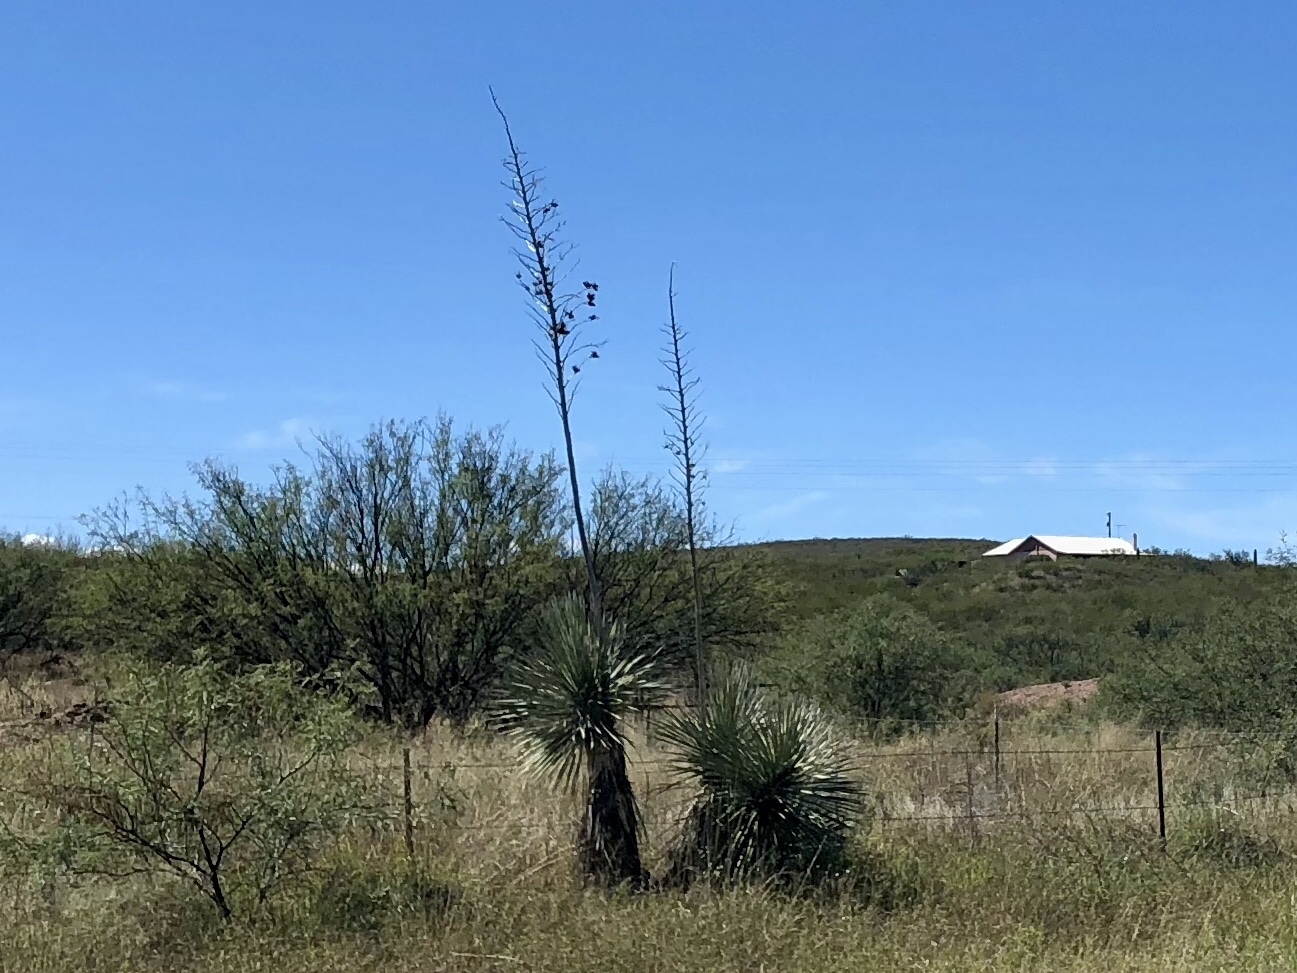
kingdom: Plantae
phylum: Tracheophyta
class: Liliopsida
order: Asparagales
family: Asparagaceae
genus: Yucca
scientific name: Yucca elata
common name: Palmella
